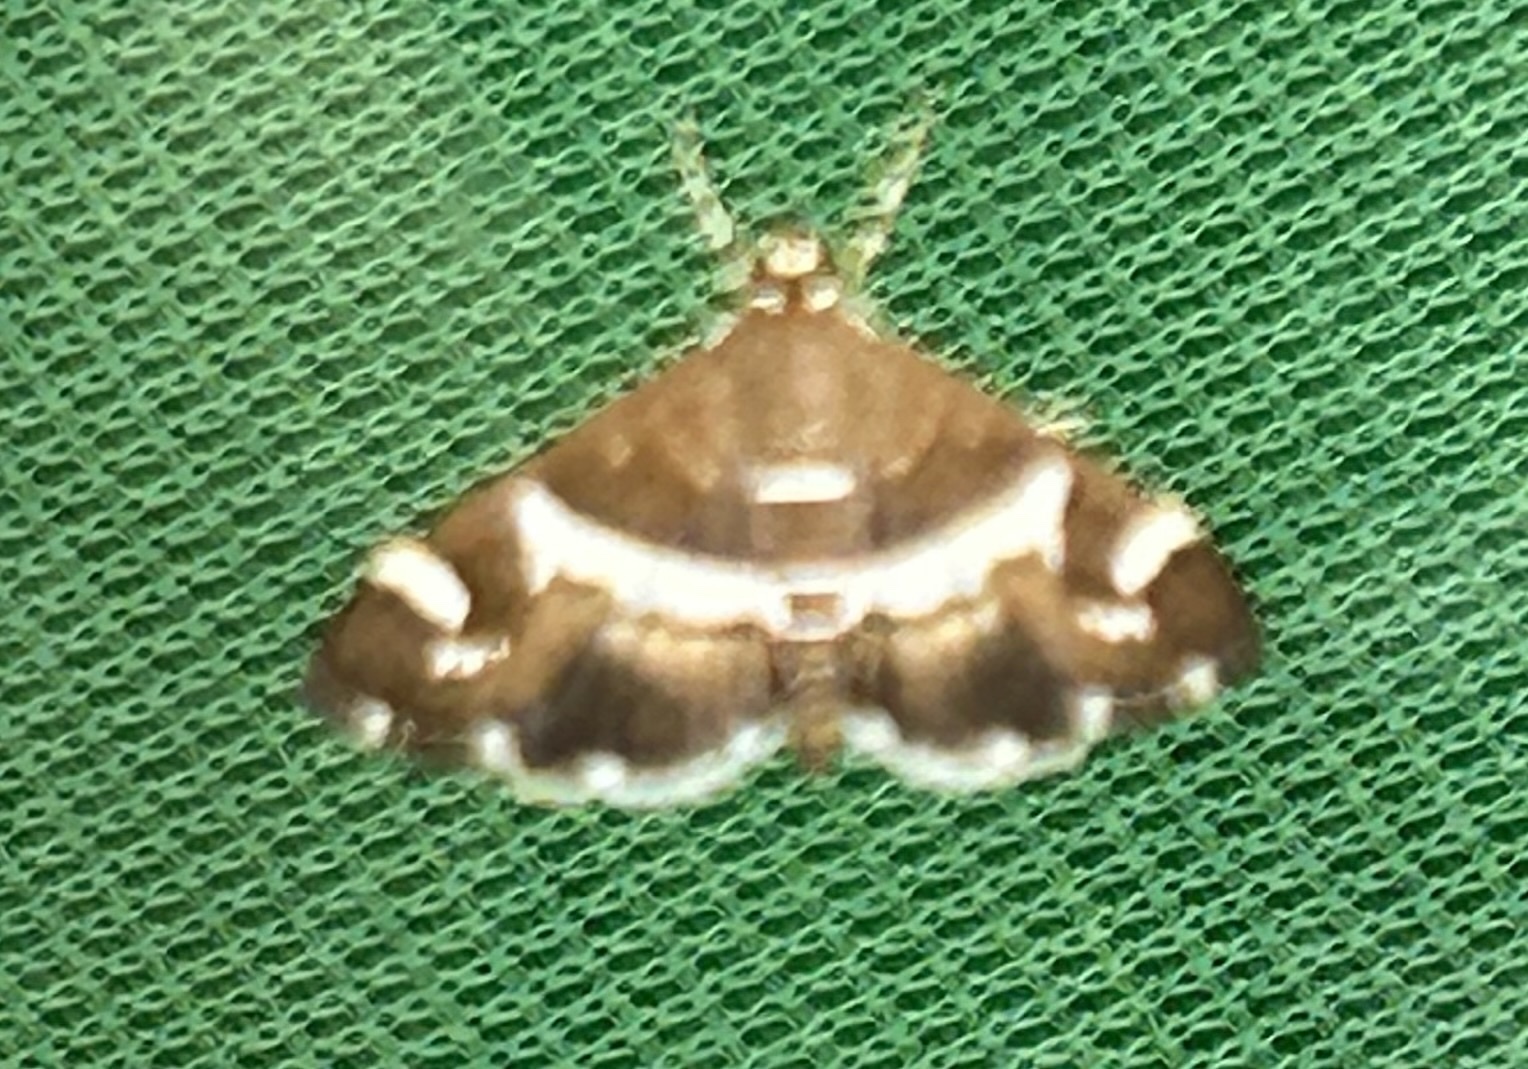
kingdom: Animalia
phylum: Arthropoda
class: Insecta
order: Lepidoptera
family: Crambidae
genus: Spoladea
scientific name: Spoladea recurvalis
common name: Beet webworm moth
